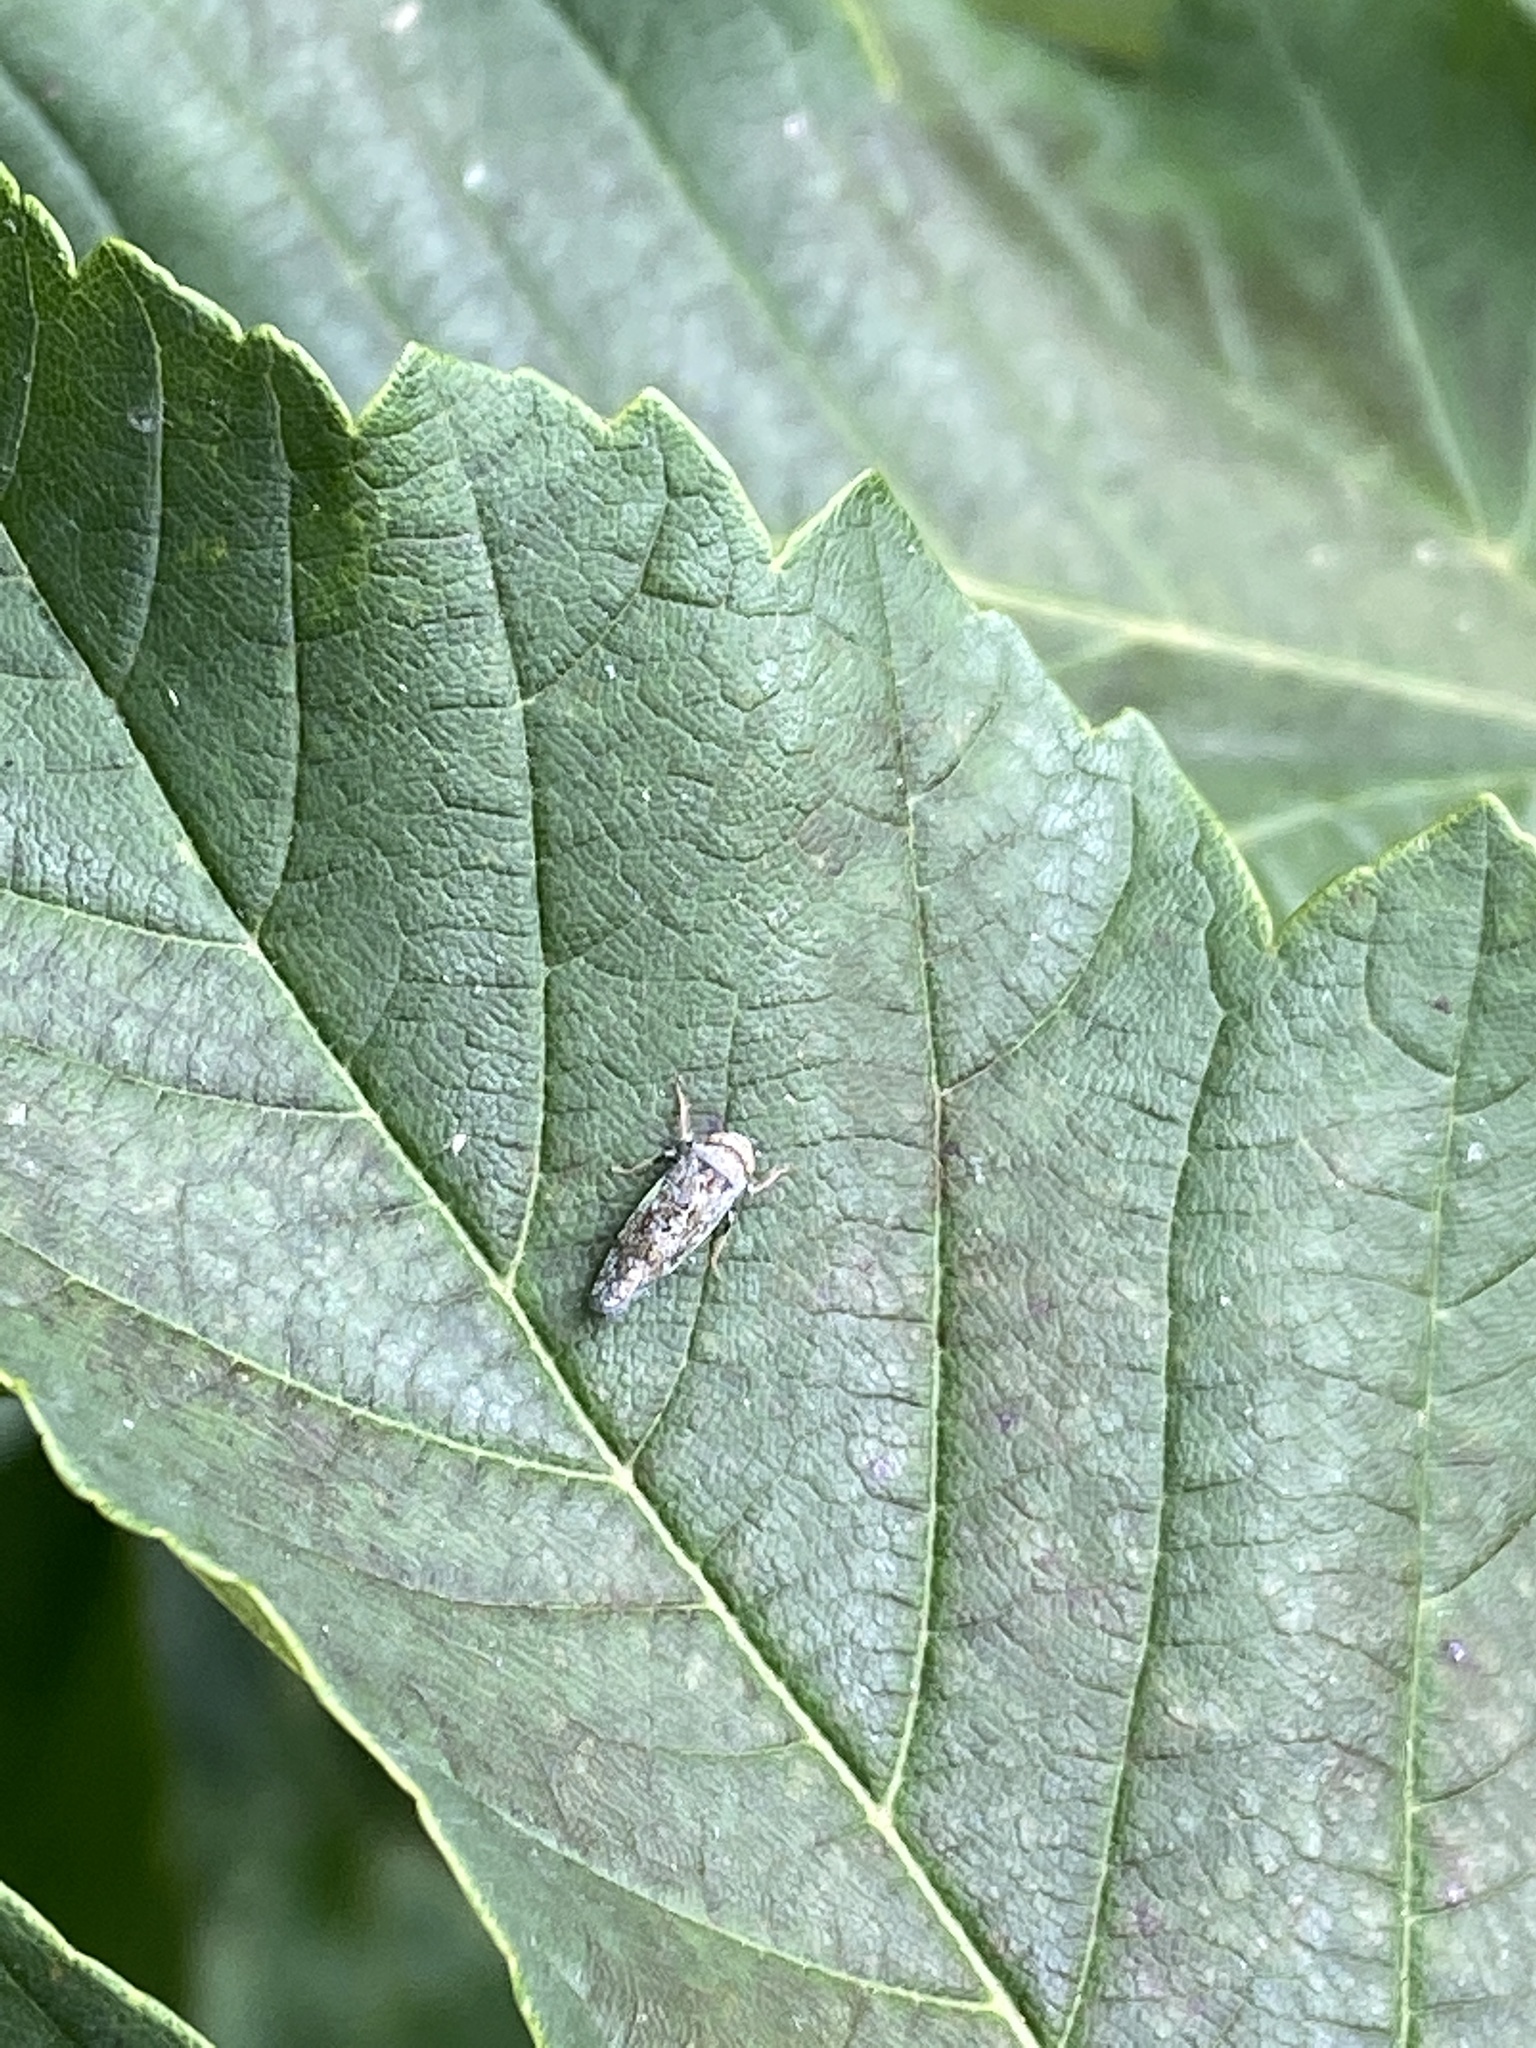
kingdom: Animalia
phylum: Arthropoda
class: Insecta
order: Hemiptera
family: Cicadellidae
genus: Orientus
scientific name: Orientus ishidae
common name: Japanese leafhopper
